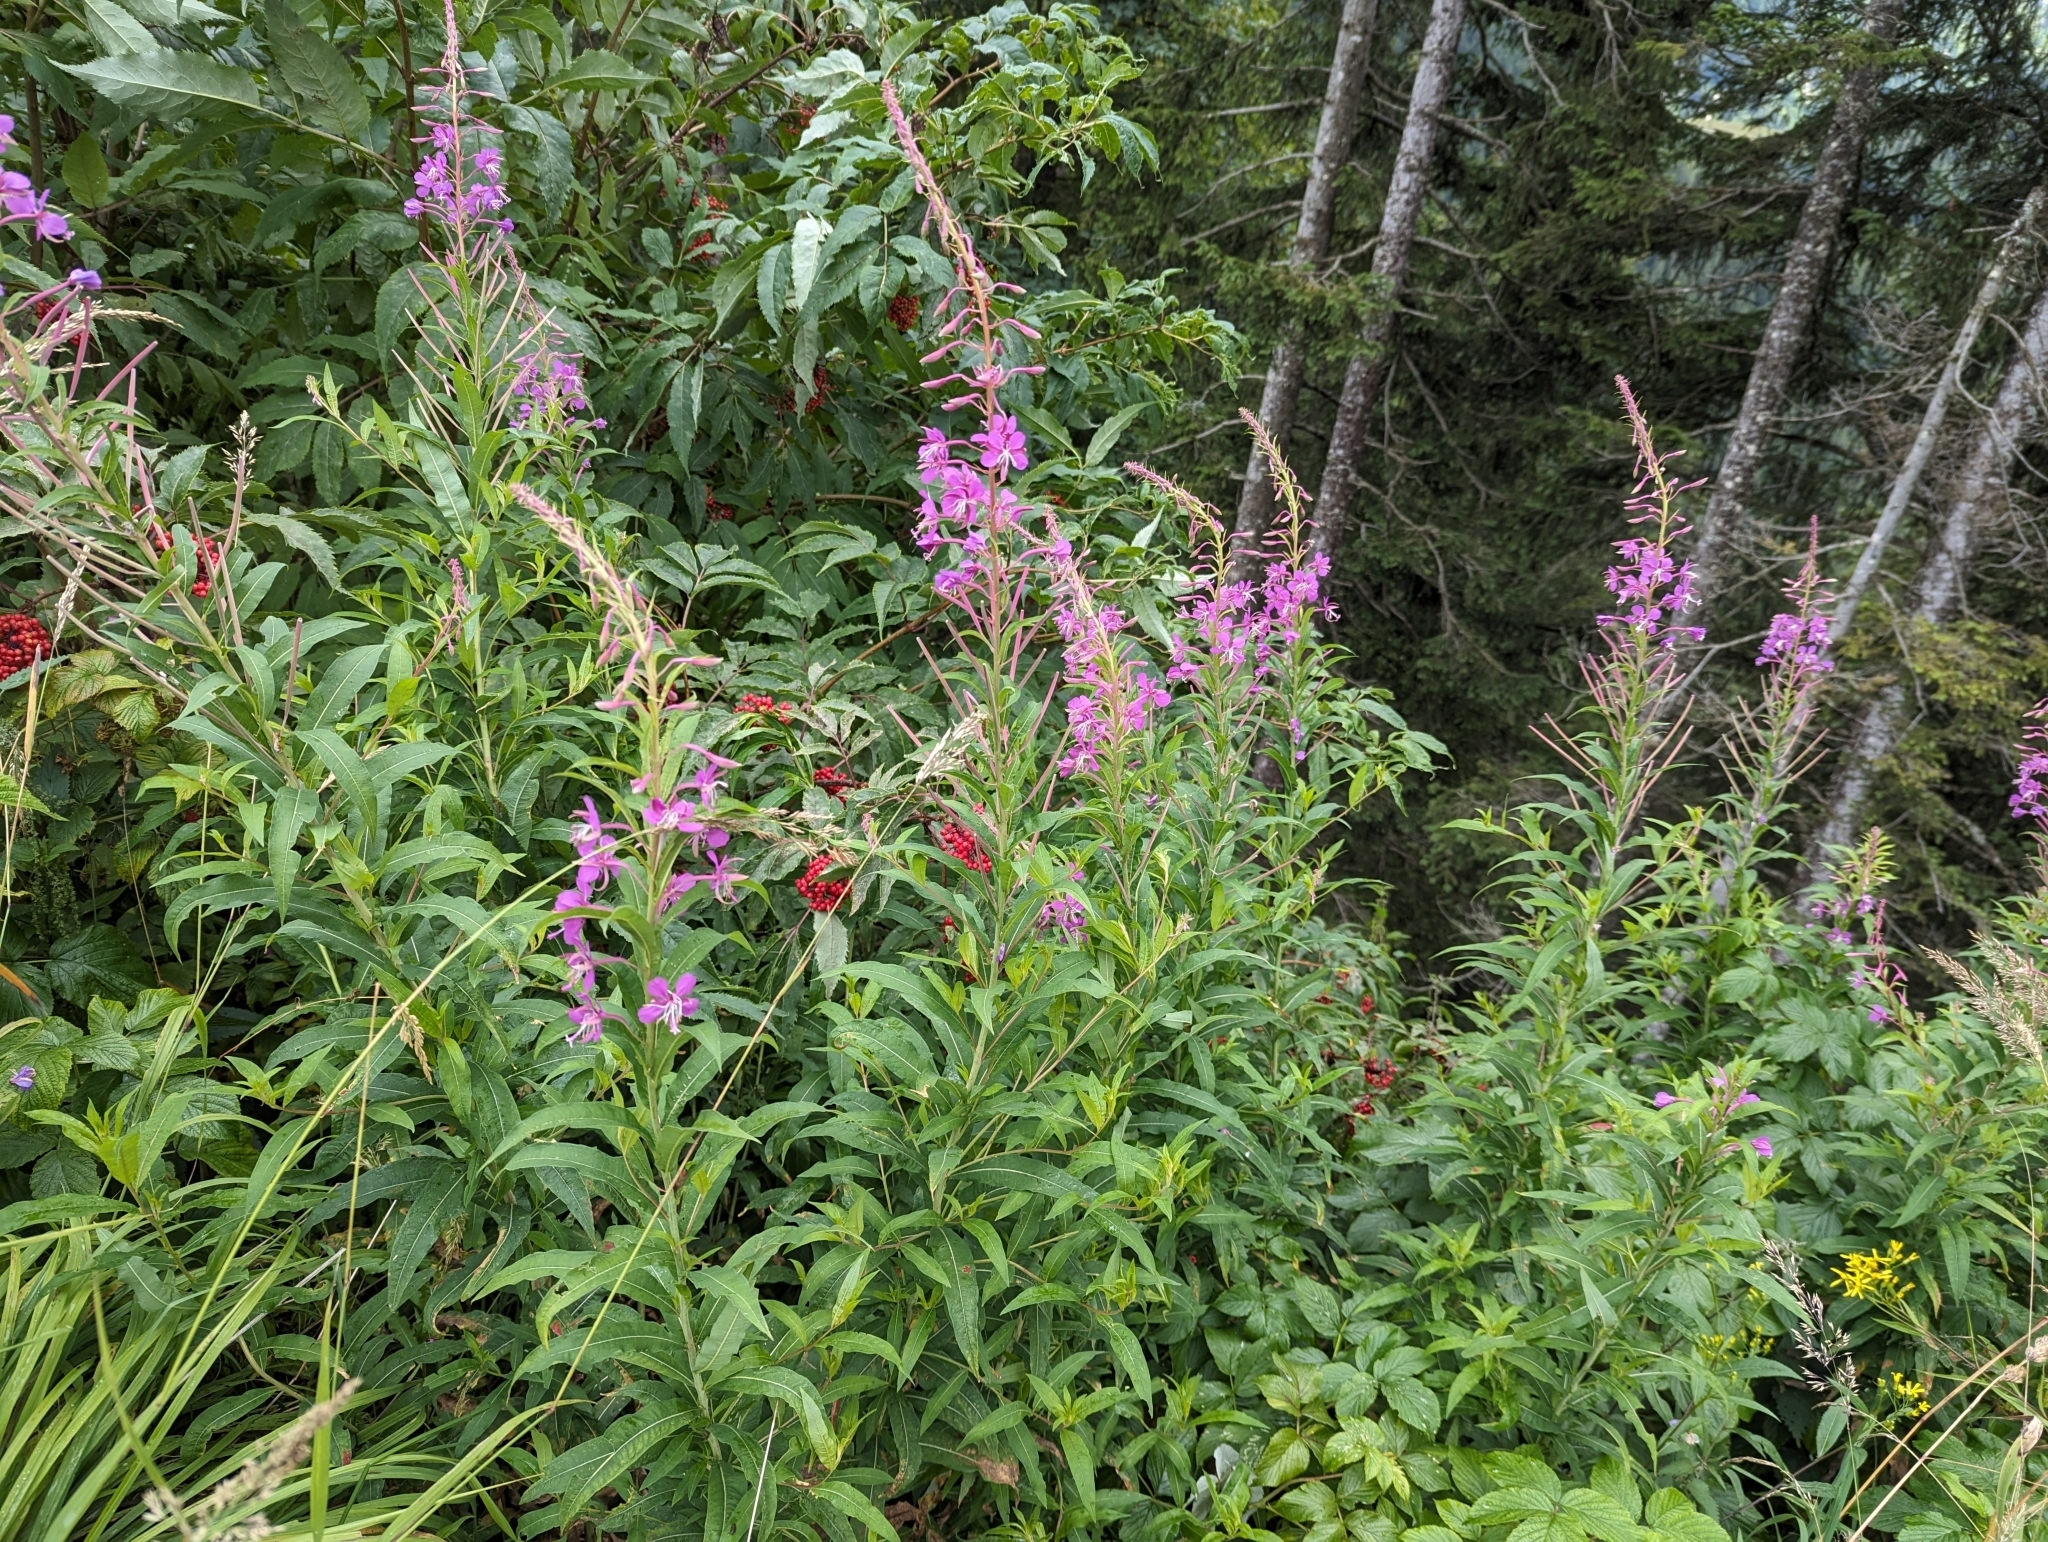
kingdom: Plantae
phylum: Tracheophyta
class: Magnoliopsida
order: Myrtales
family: Onagraceae
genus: Chamaenerion
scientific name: Chamaenerion angustifolium
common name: Fireweed
